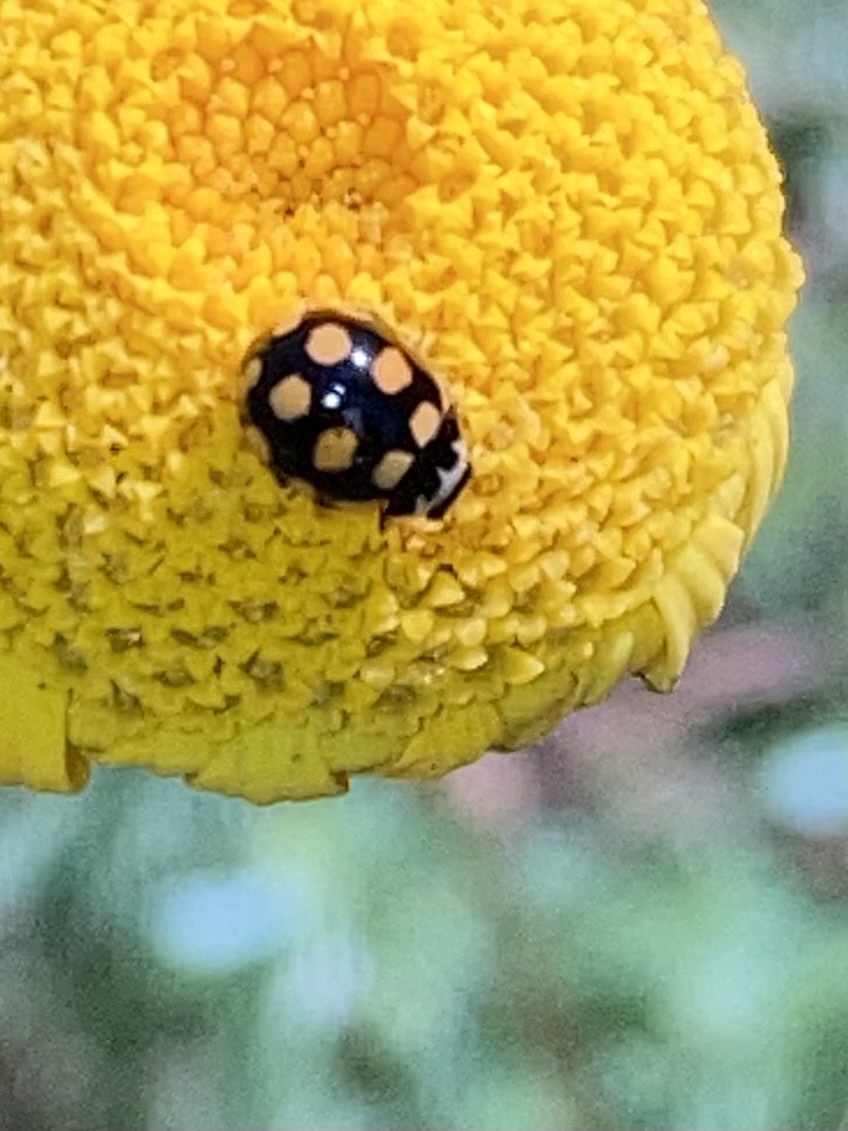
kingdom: Animalia
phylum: Arthropoda
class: Insecta
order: Coleoptera
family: Coccinellidae
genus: Coccinula
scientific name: Coccinula quatuordecimpustulata
